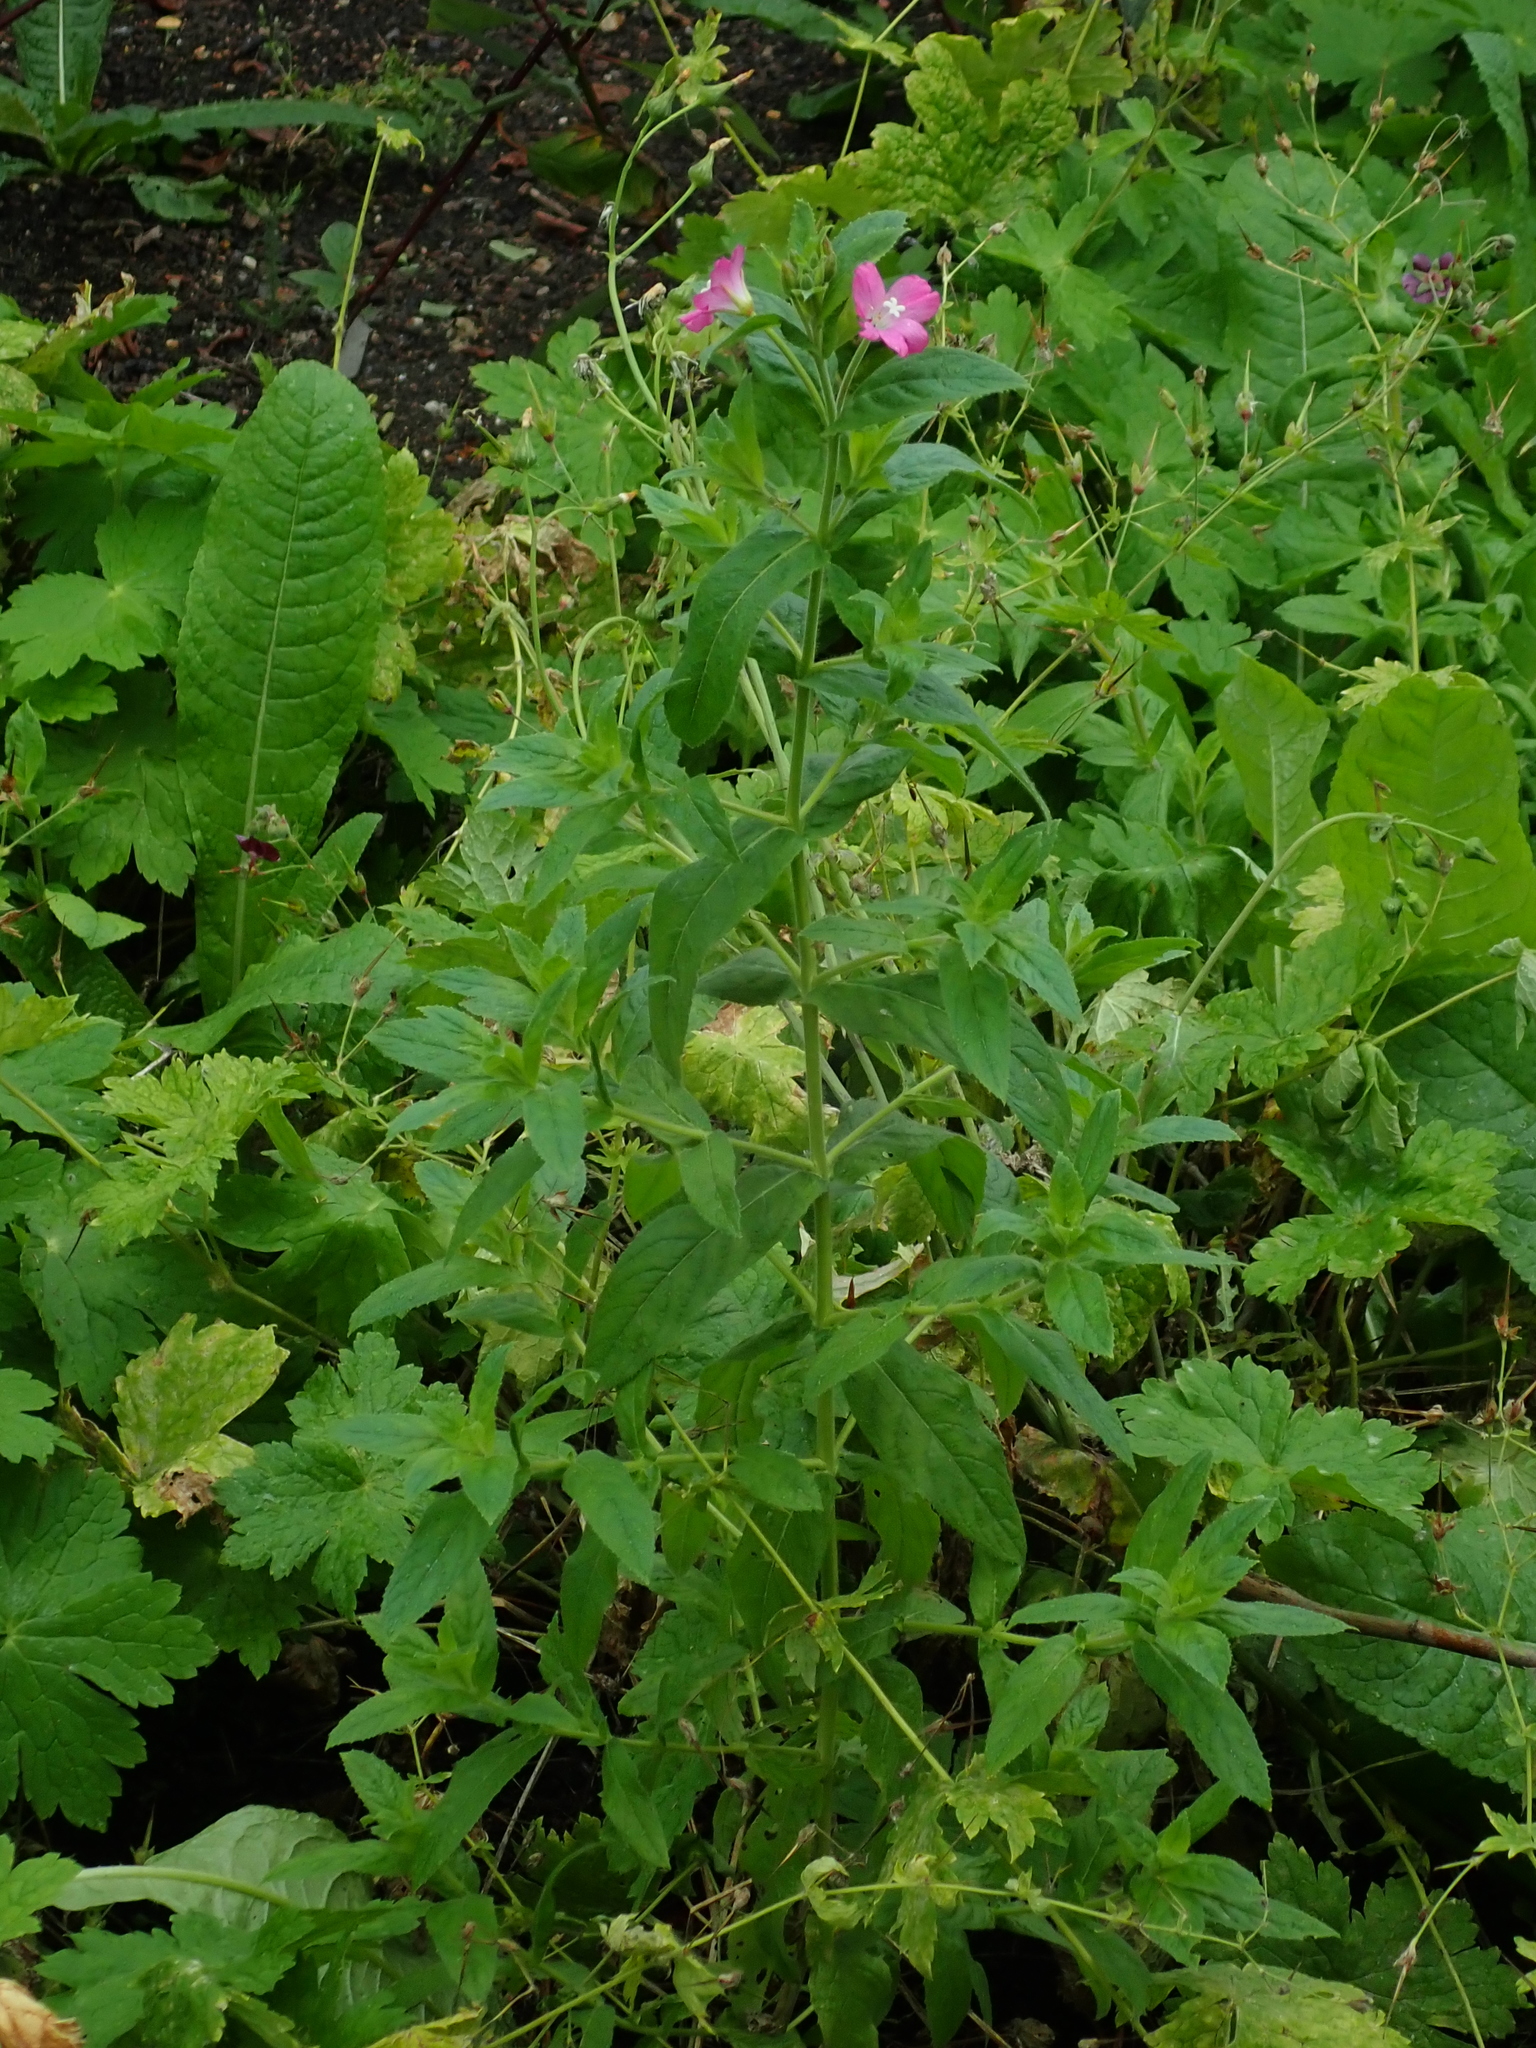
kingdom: Plantae
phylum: Tracheophyta
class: Magnoliopsida
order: Myrtales
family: Onagraceae
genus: Epilobium
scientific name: Epilobium hirsutum
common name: Great willowherb
